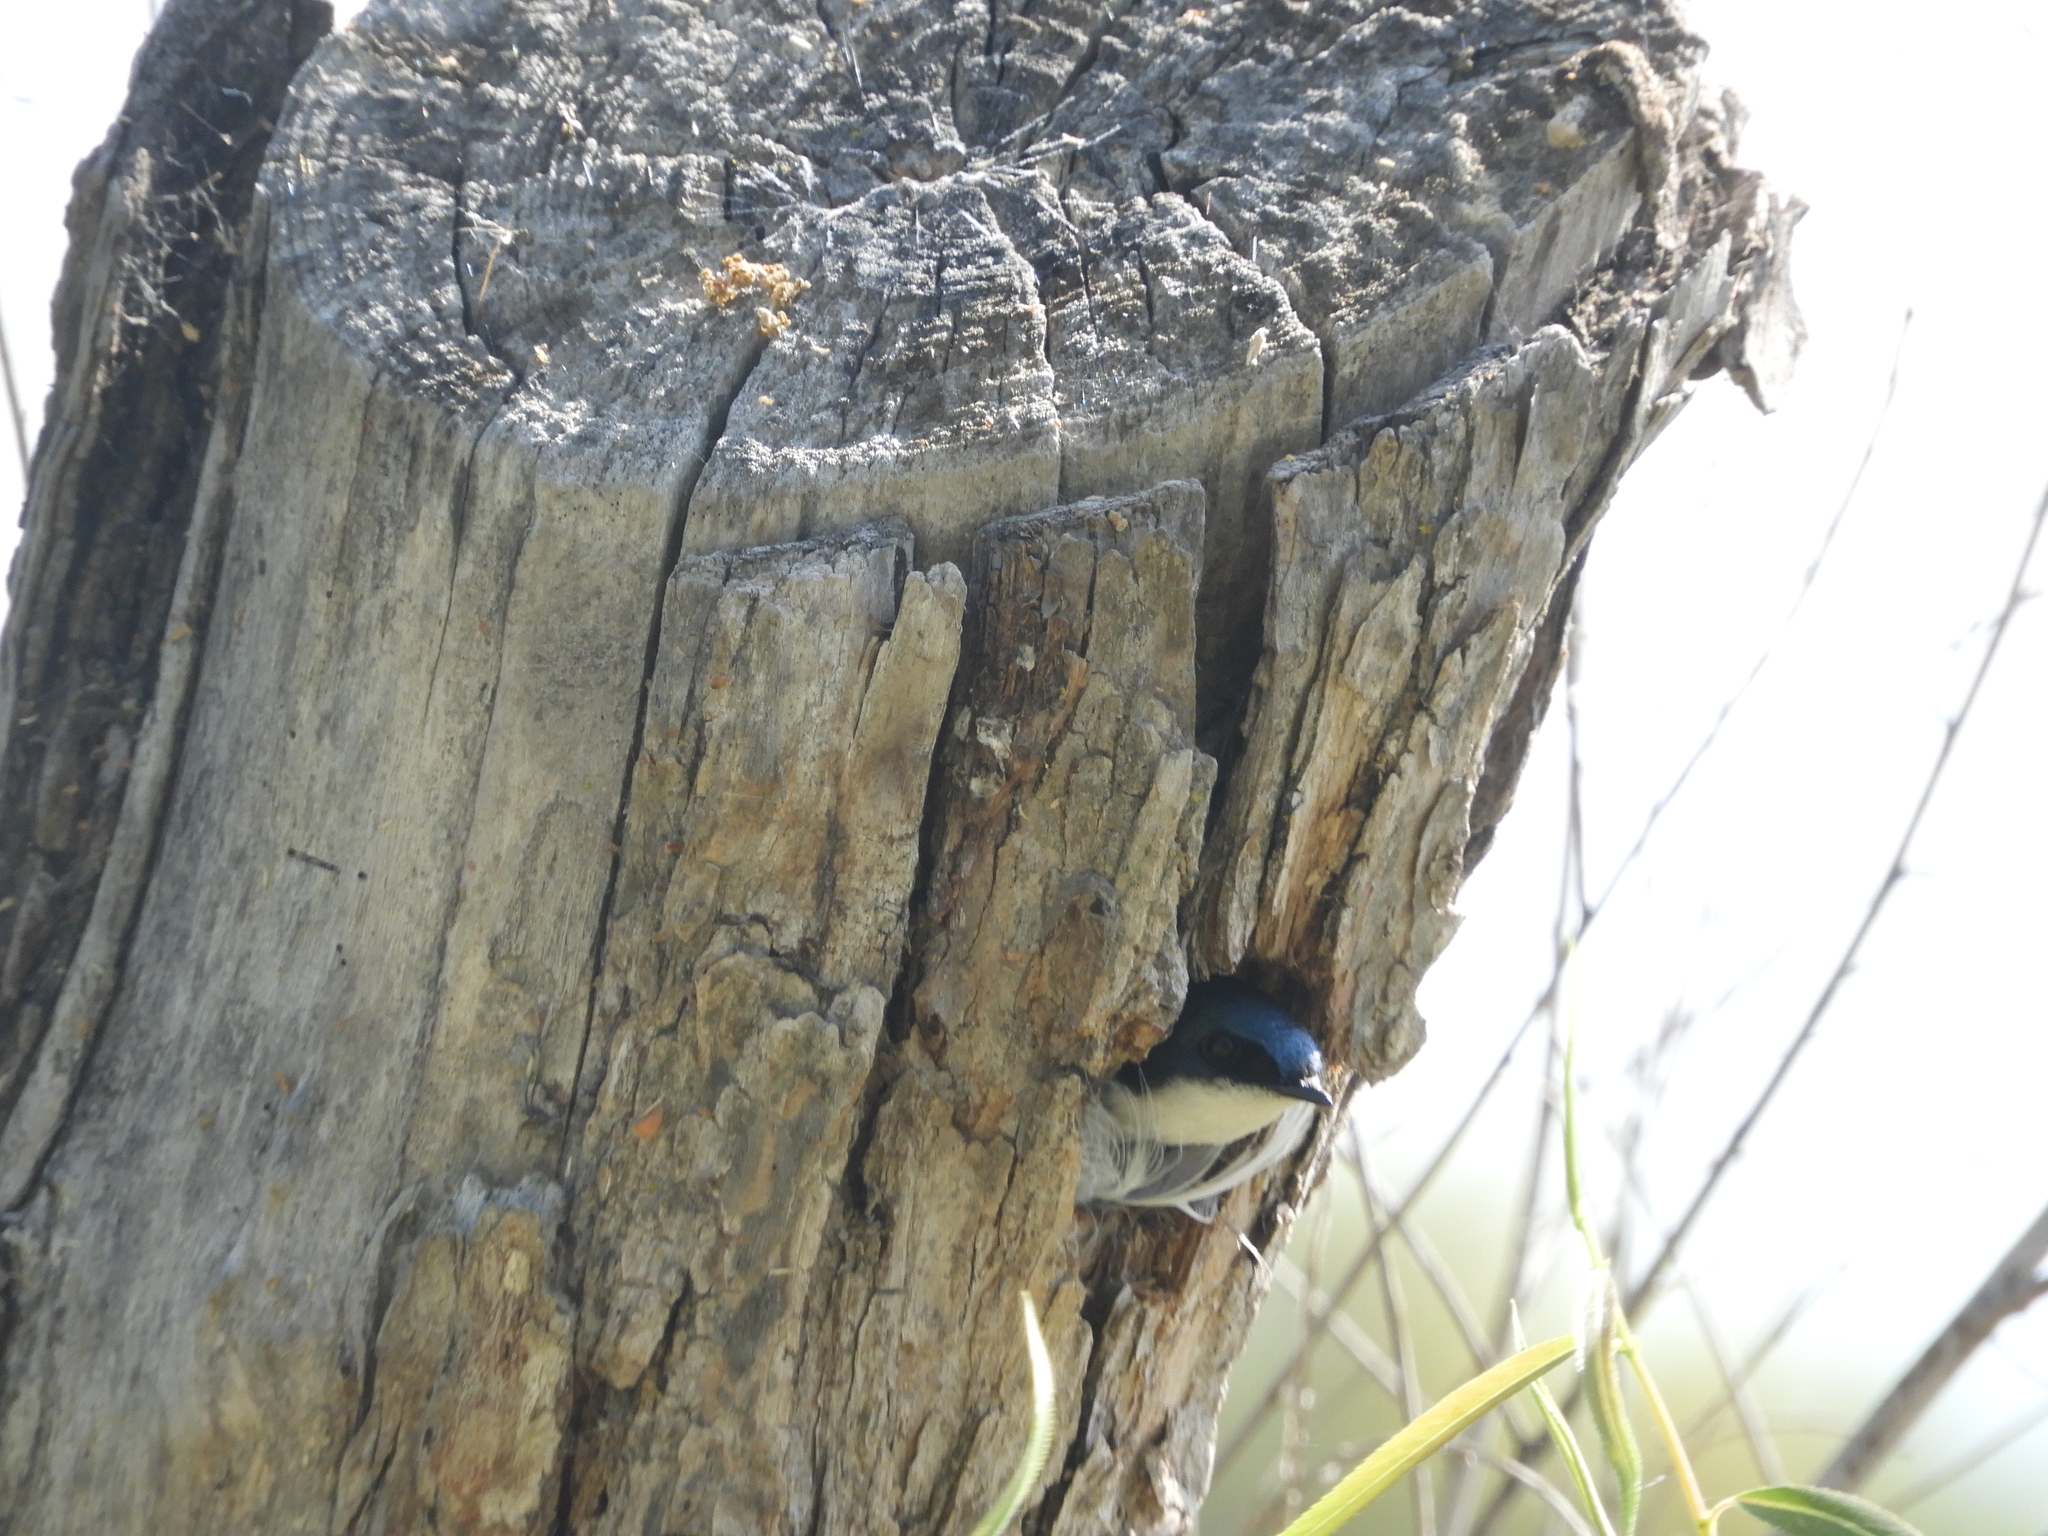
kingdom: Animalia
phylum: Chordata
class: Aves
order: Passeriformes
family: Hirundinidae
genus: Tachycineta
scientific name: Tachycineta bicolor
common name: Tree swallow
